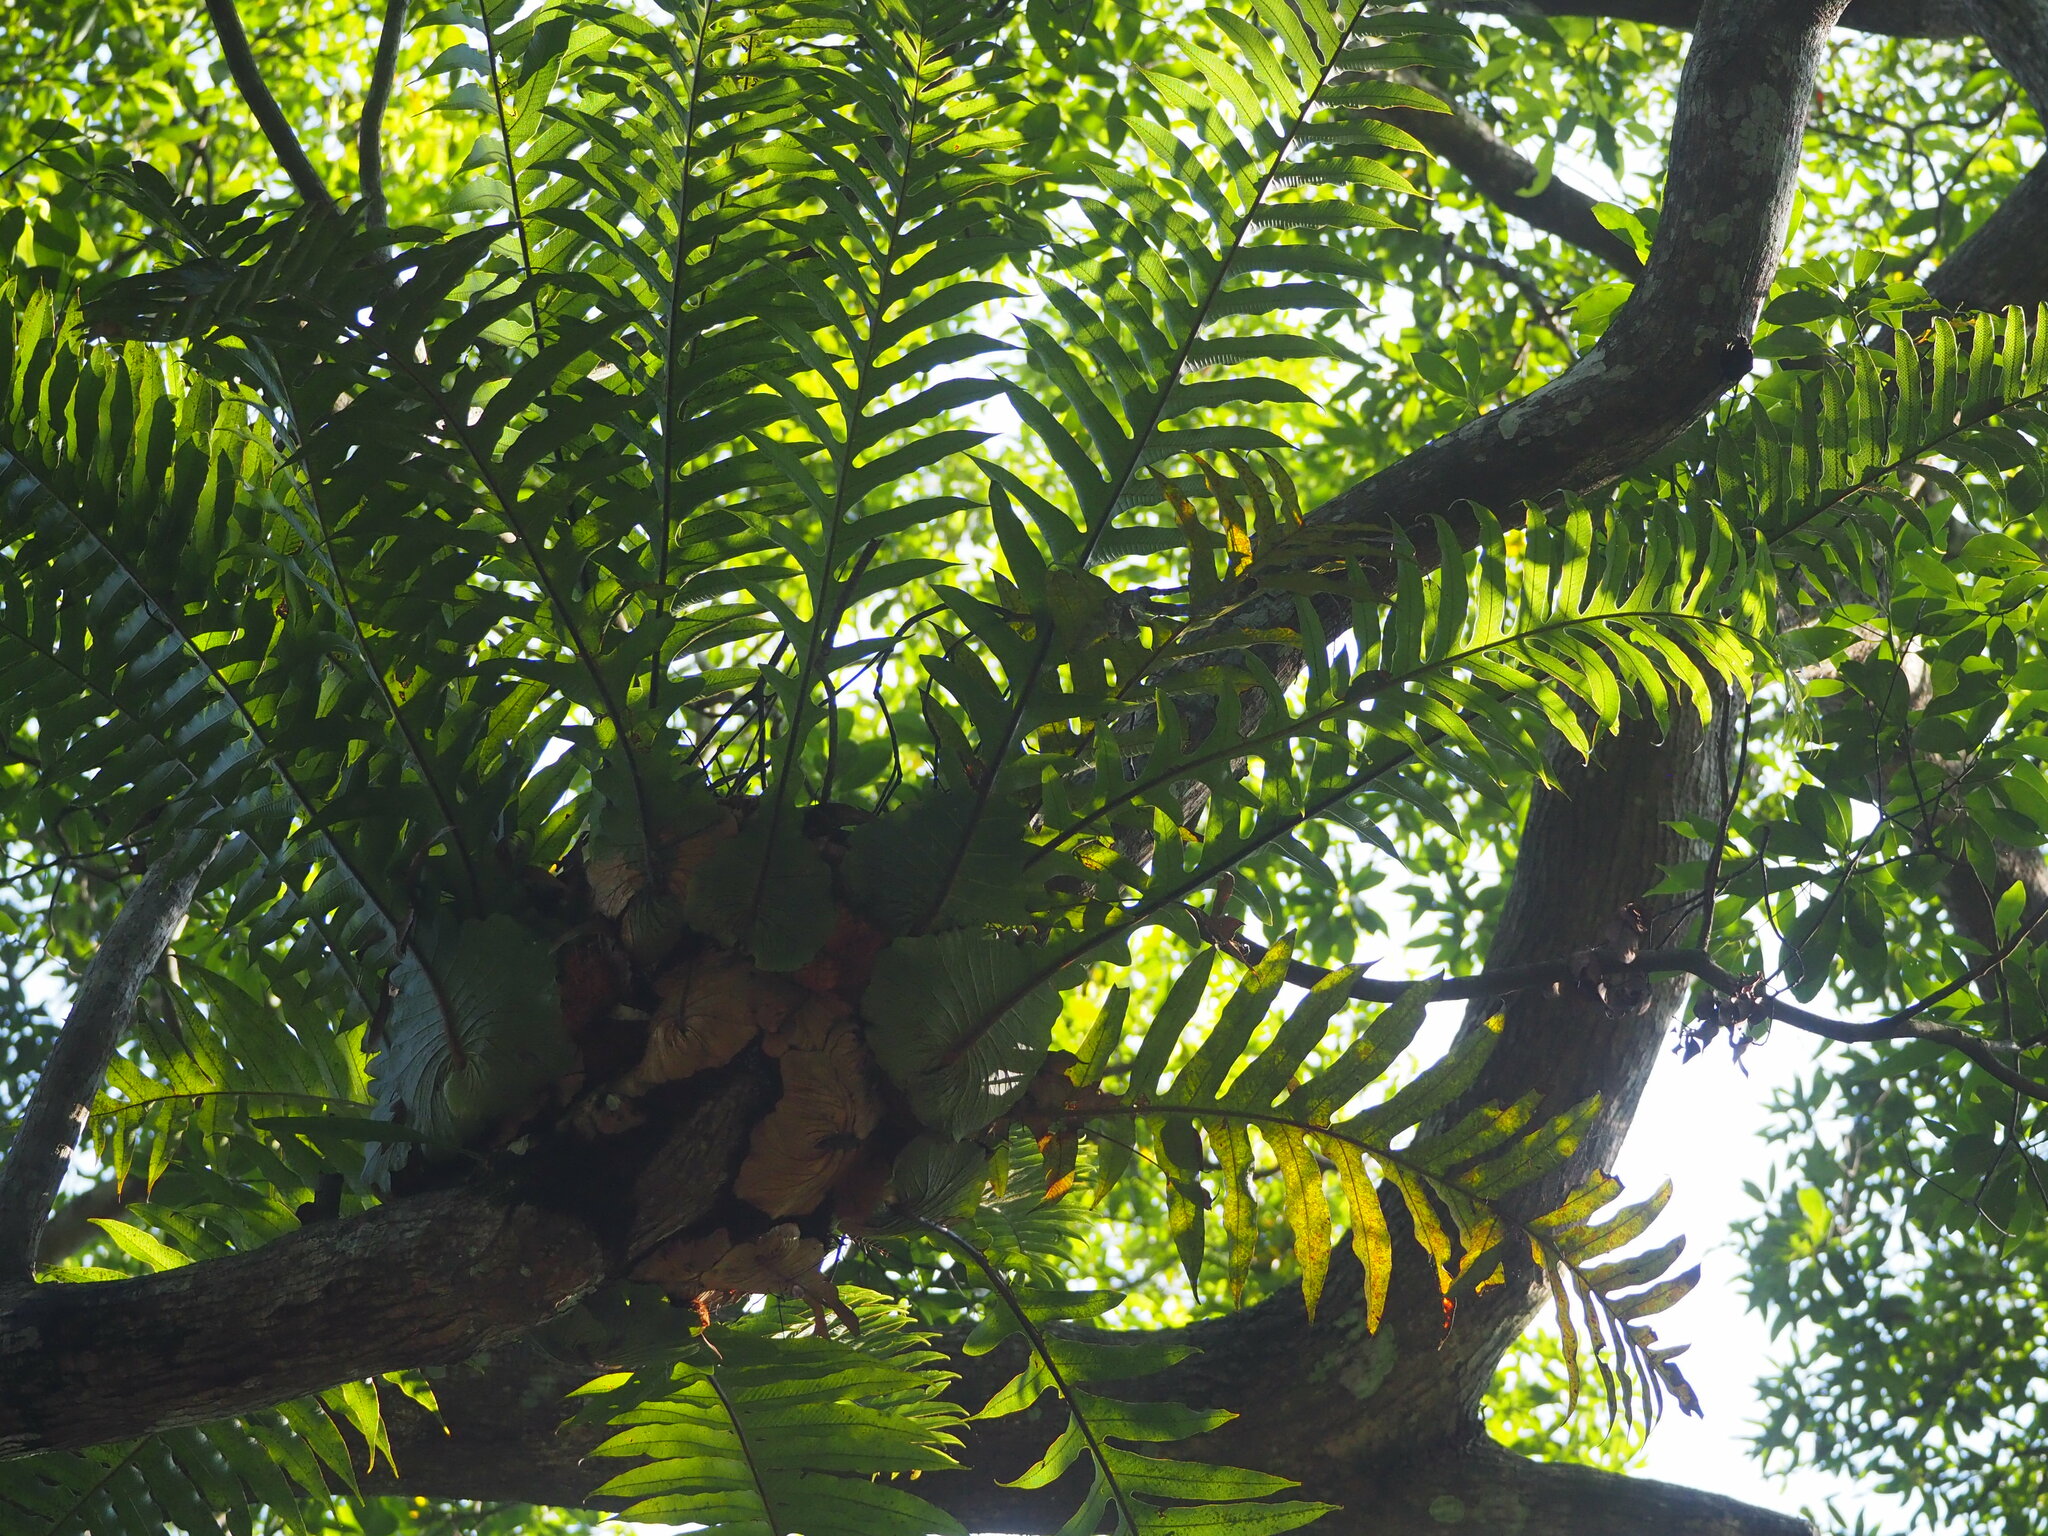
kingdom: Plantae
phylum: Tracheophyta
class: Polypodiopsida
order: Polypodiales
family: Polypodiaceae
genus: Drynaria
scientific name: Drynaria coronans
